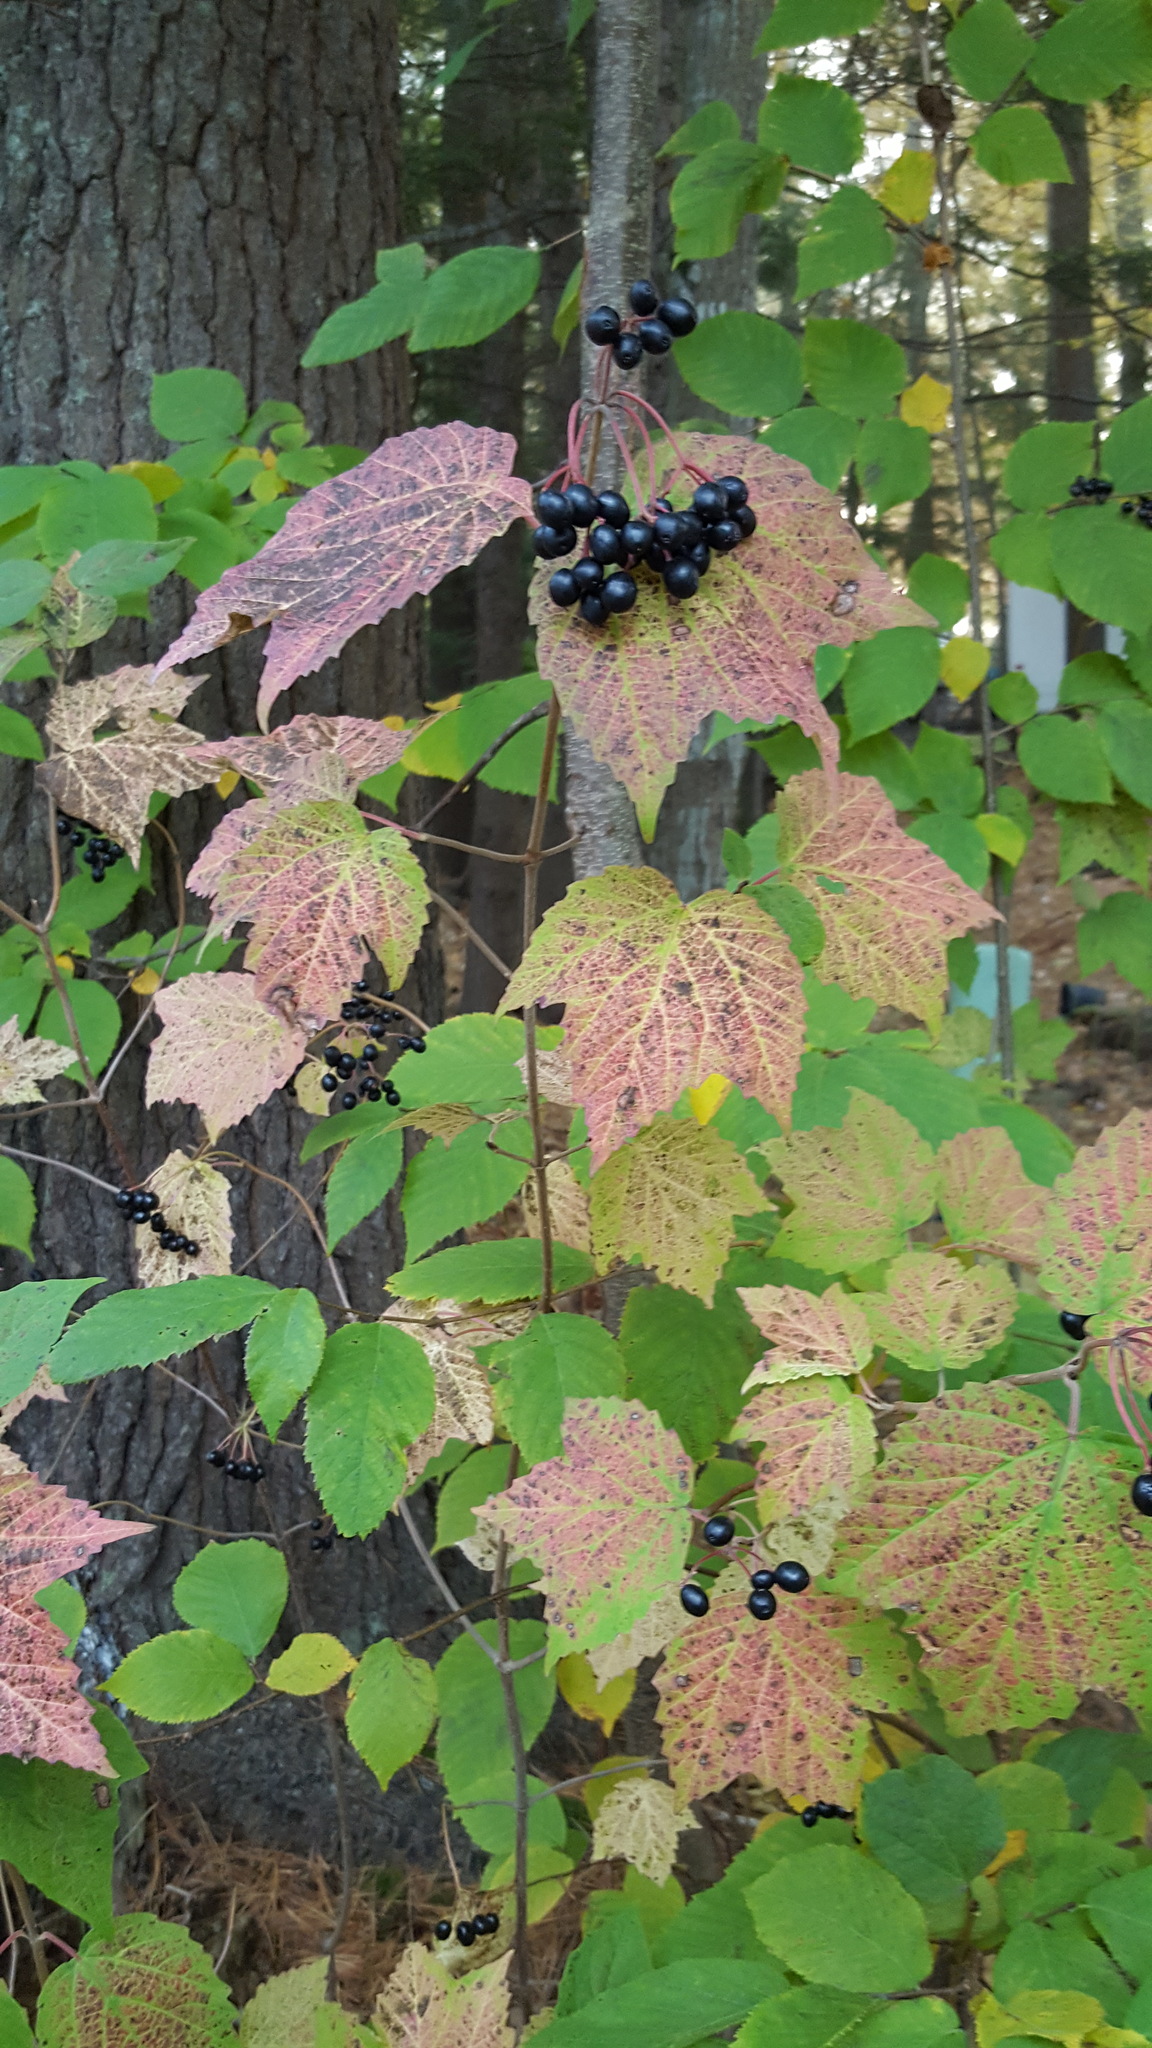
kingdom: Plantae
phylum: Tracheophyta
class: Magnoliopsida
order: Dipsacales
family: Viburnaceae
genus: Viburnum
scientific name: Viburnum acerifolium
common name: Dockmackie
